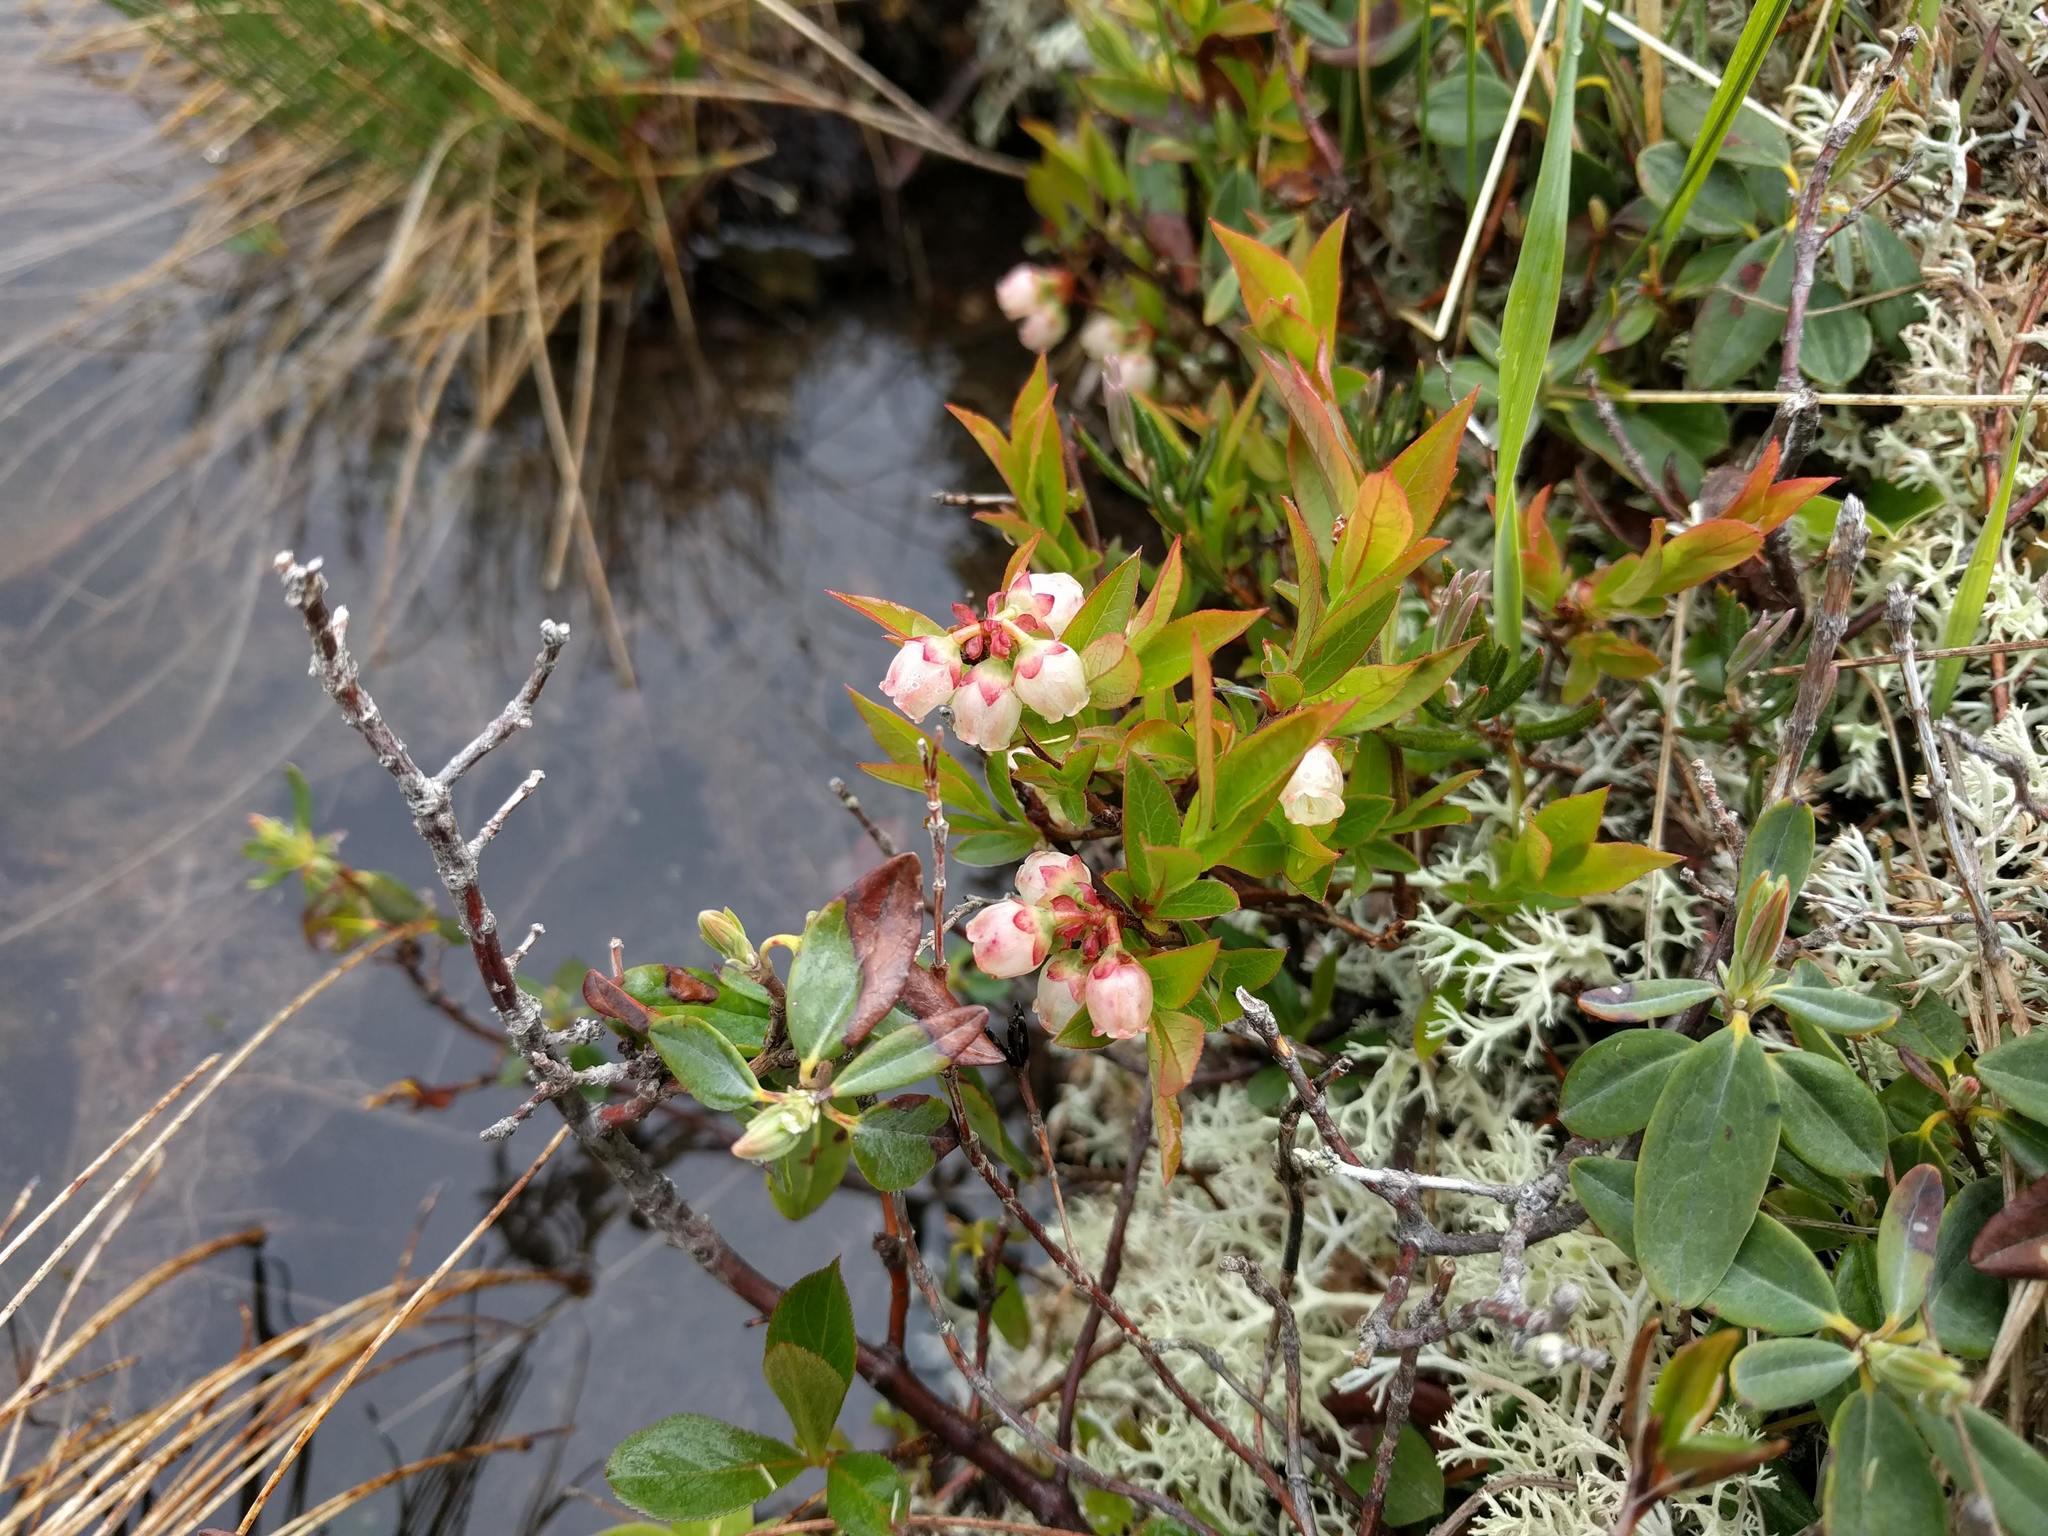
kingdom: Plantae
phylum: Tracheophyta
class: Magnoliopsida
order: Ericales
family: Ericaceae
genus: Vaccinium
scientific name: Vaccinium angustifolium
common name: Early lowbush blueberry
